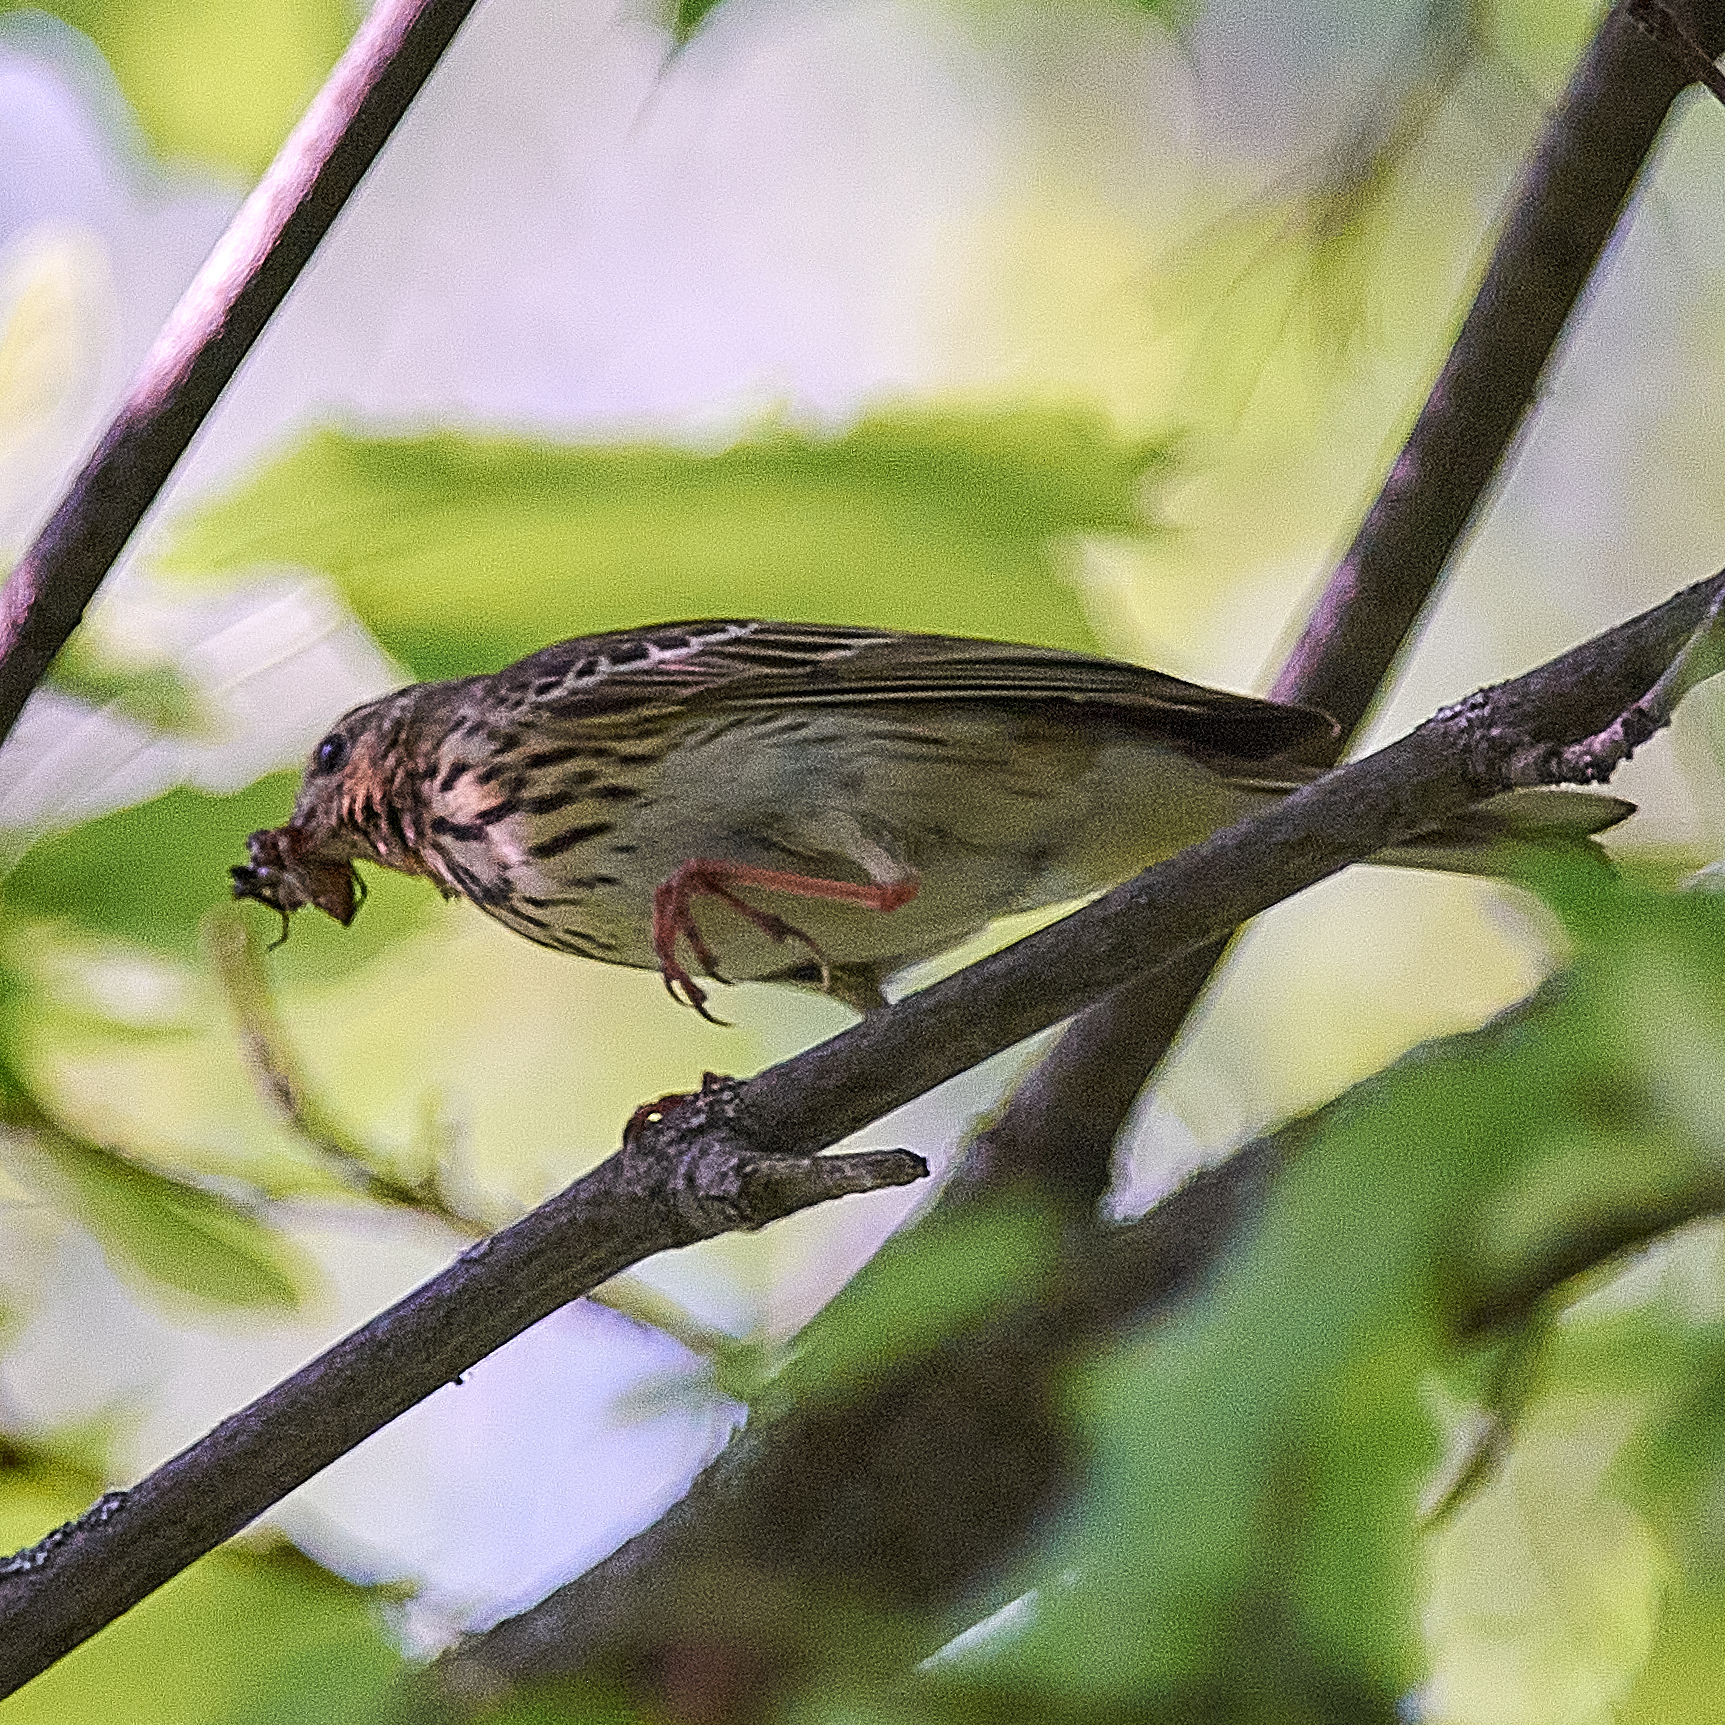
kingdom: Animalia
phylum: Chordata
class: Aves
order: Passeriformes
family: Motacillidae
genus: Anthus
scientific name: Anthus trivialis
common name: Tree pipit
